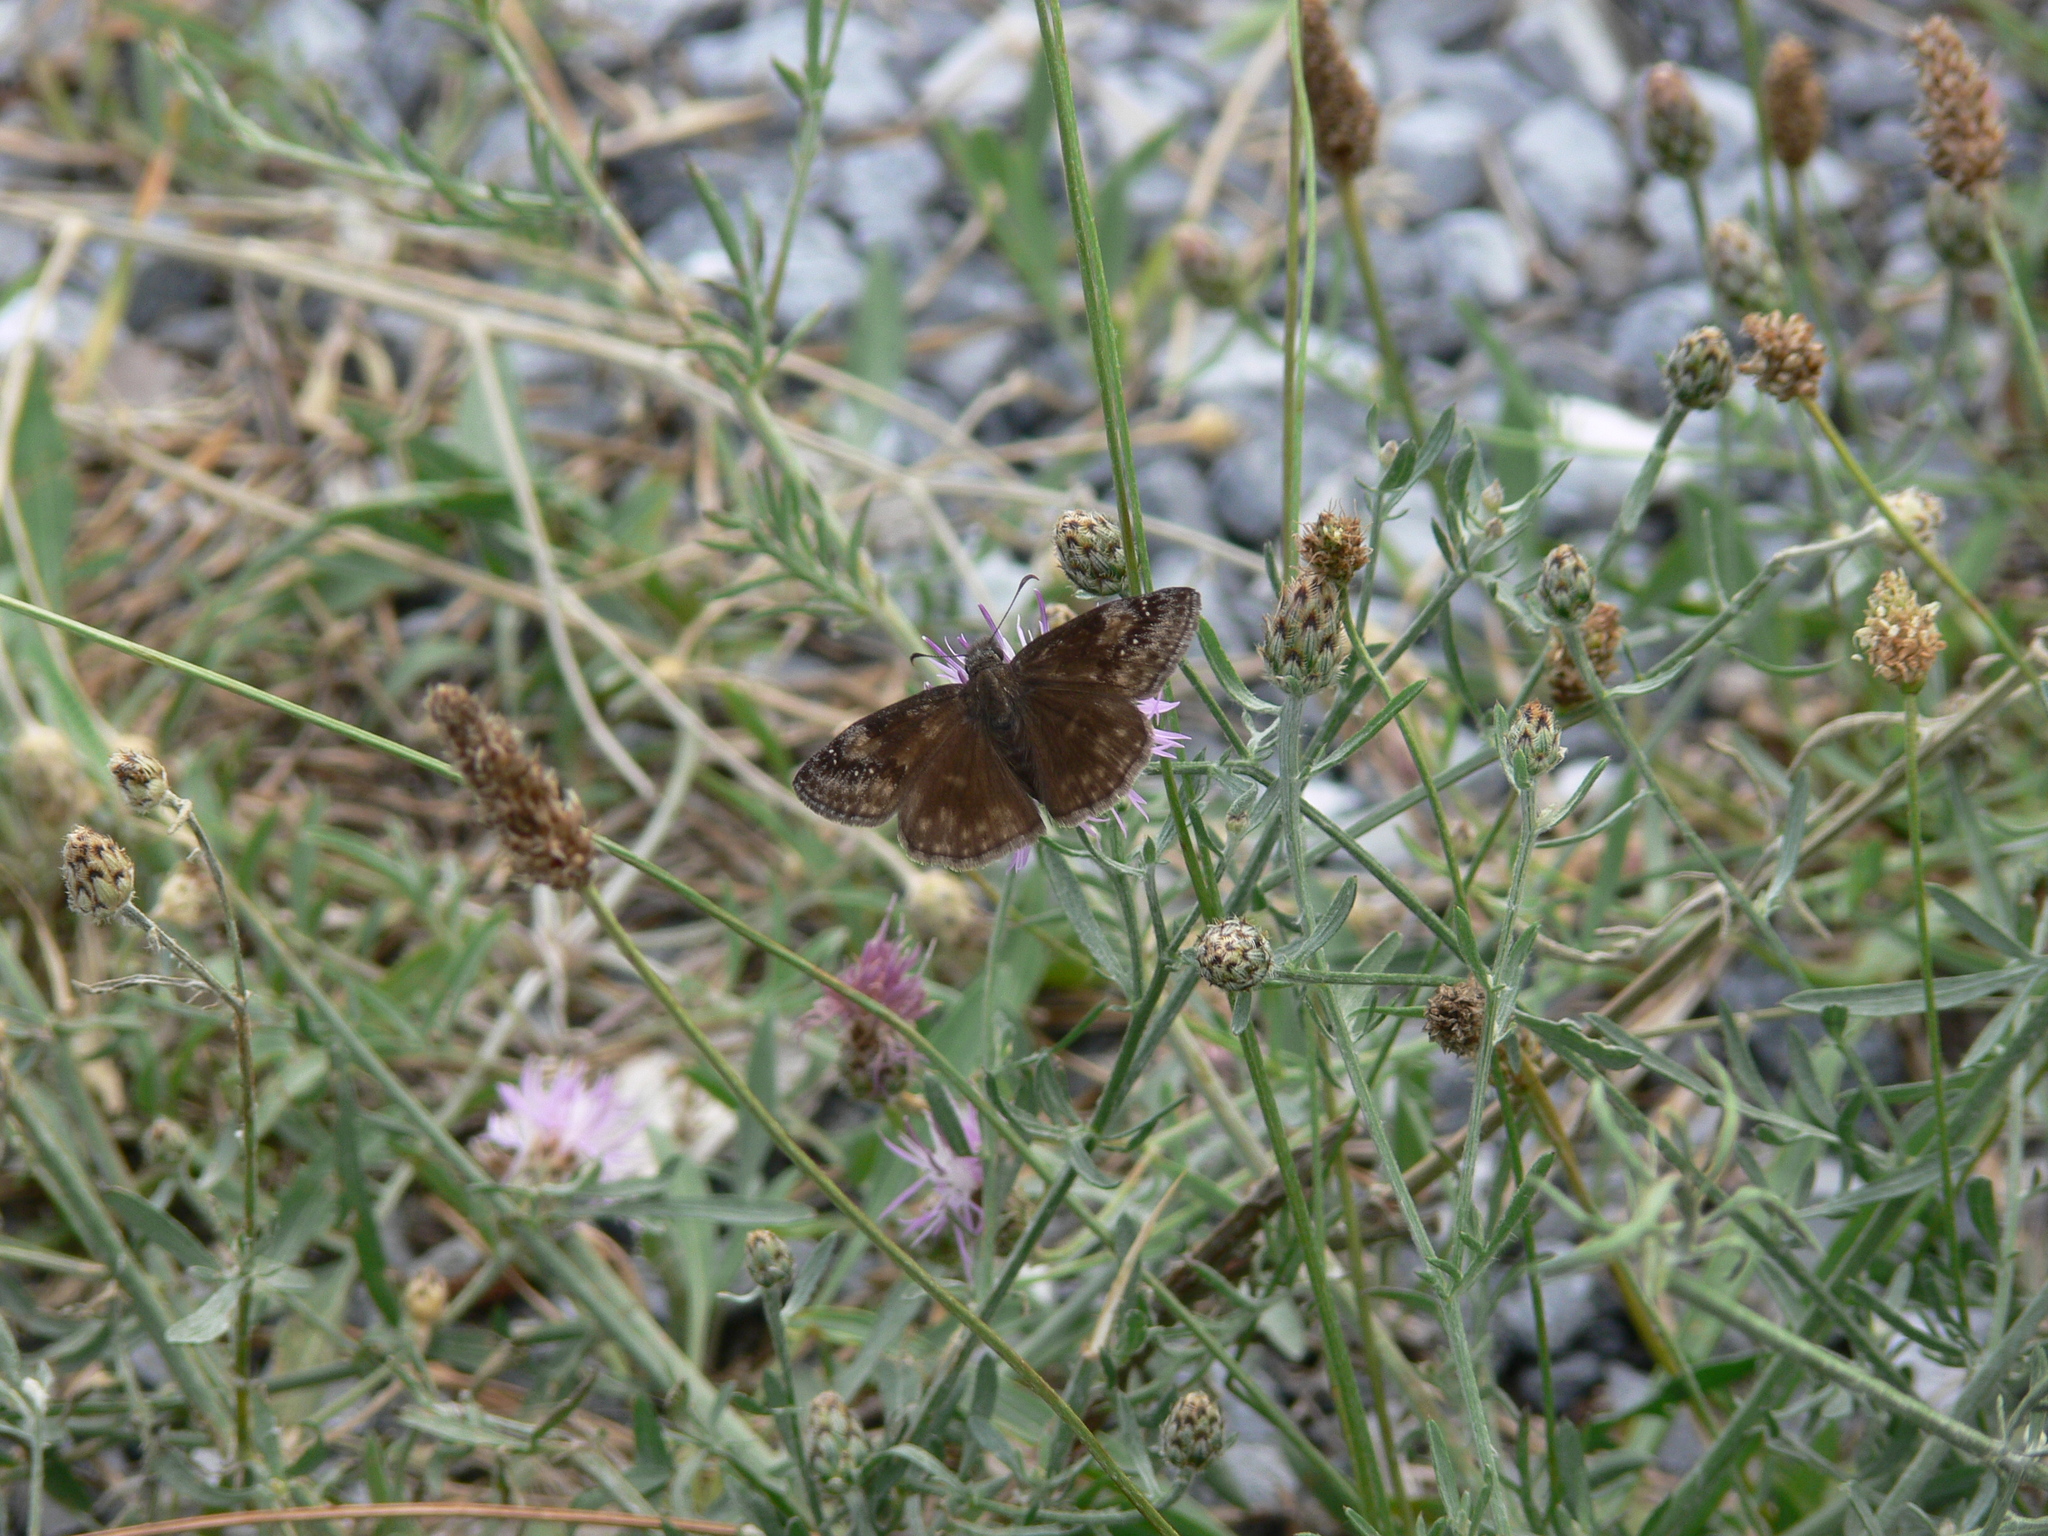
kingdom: Animalia
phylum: Arthropoda
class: Insecta
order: Lepidoptera
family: Hesperiidae
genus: Erynnis
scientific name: Erynnis baptisiae
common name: Wild indigo duskywing
